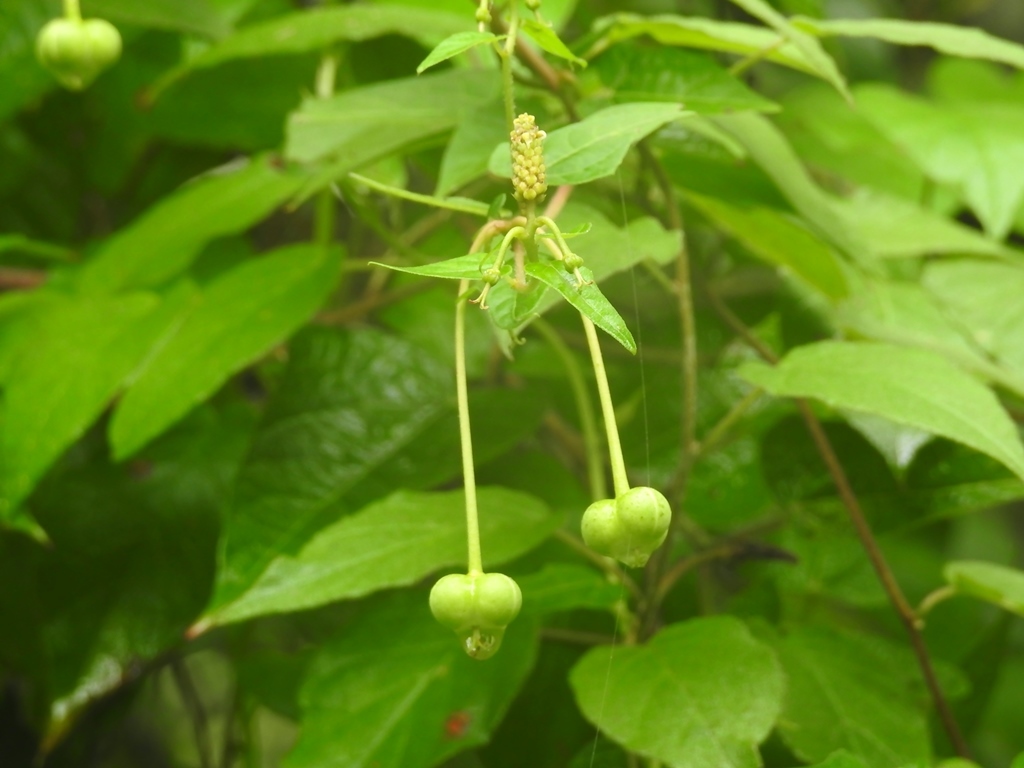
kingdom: Plantae
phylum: Tracheophyta
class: Magnoliopsida
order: Malpighiales
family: Euphorbiaceae
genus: Dalembertia
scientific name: Dalembertia triangularis
